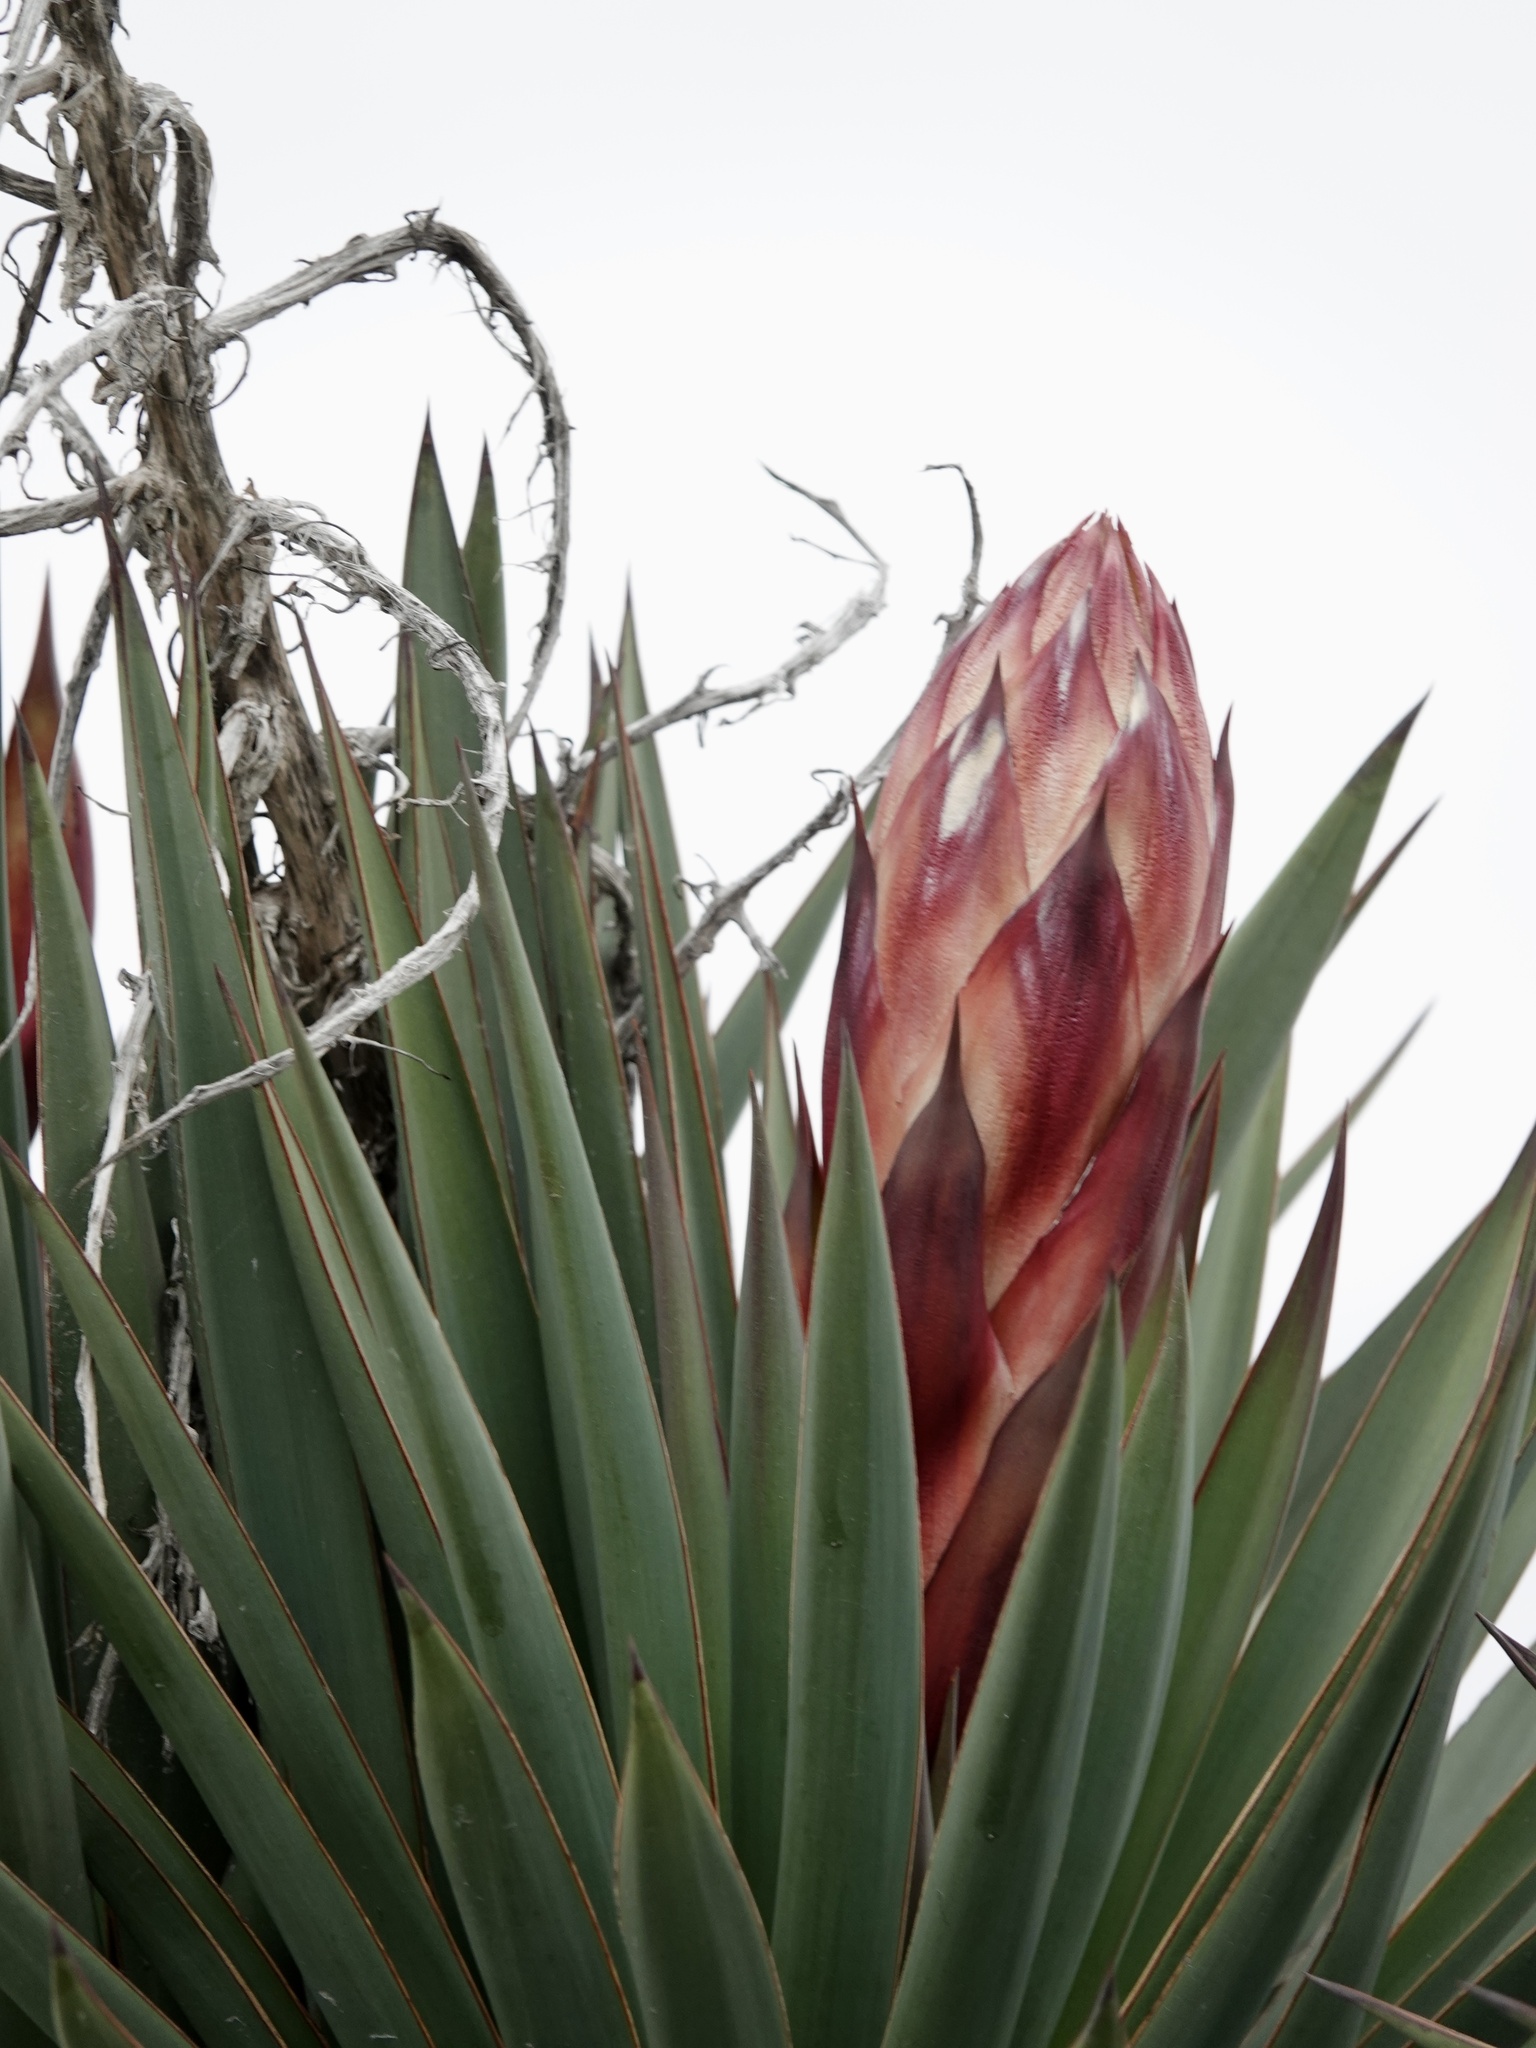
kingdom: Plantae
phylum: Tracheophyta
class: Liliopsida
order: Asparagales
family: Asparagaceae
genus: Yucca
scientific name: Yucca treculiana
